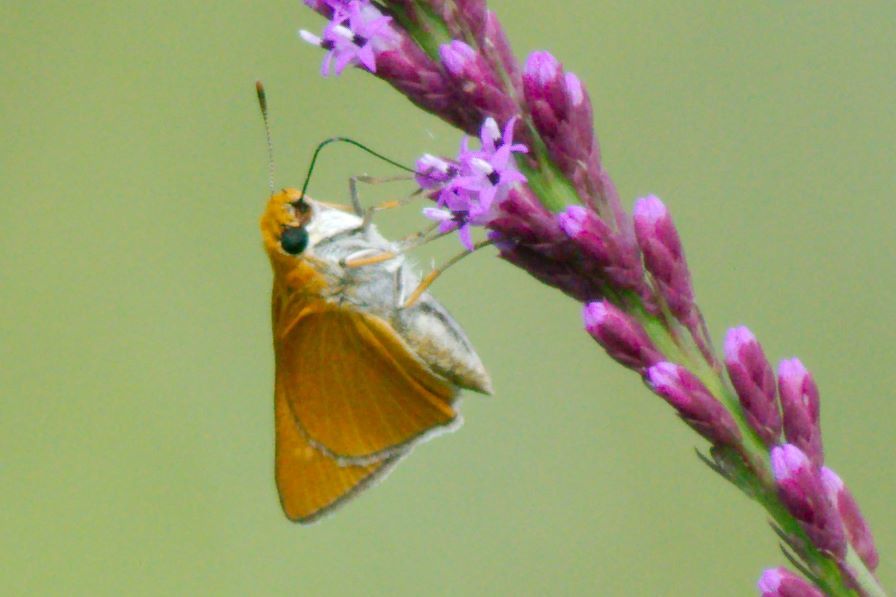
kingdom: Animalia
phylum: Arthropoda
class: Insecta
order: Lepidoptera
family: Hesperiidae
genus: Euphyes
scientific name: Euphyes arpa
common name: Palmetto skipper
